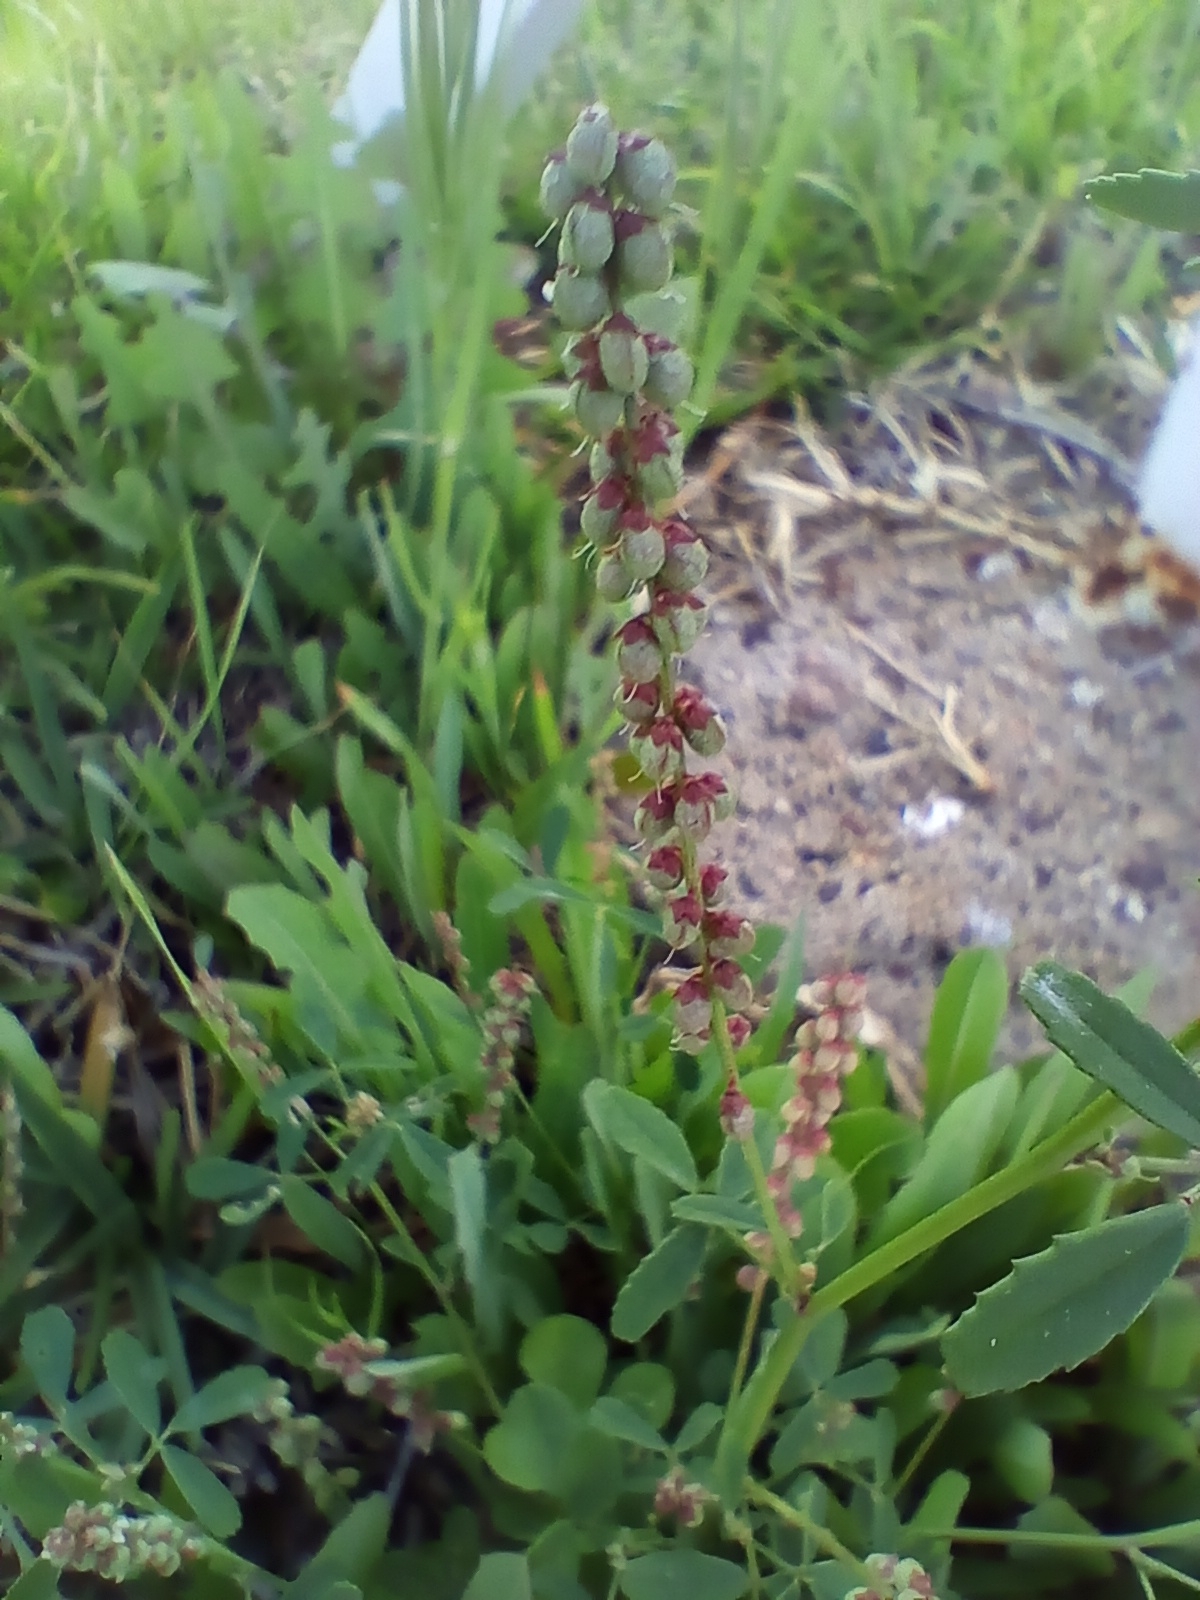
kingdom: Plantae
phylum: Tracheophyta
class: Magnoliopsida
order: Fabales
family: Fabaceae
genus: Melilotus
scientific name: Melilotus indicus
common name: Small melilot
